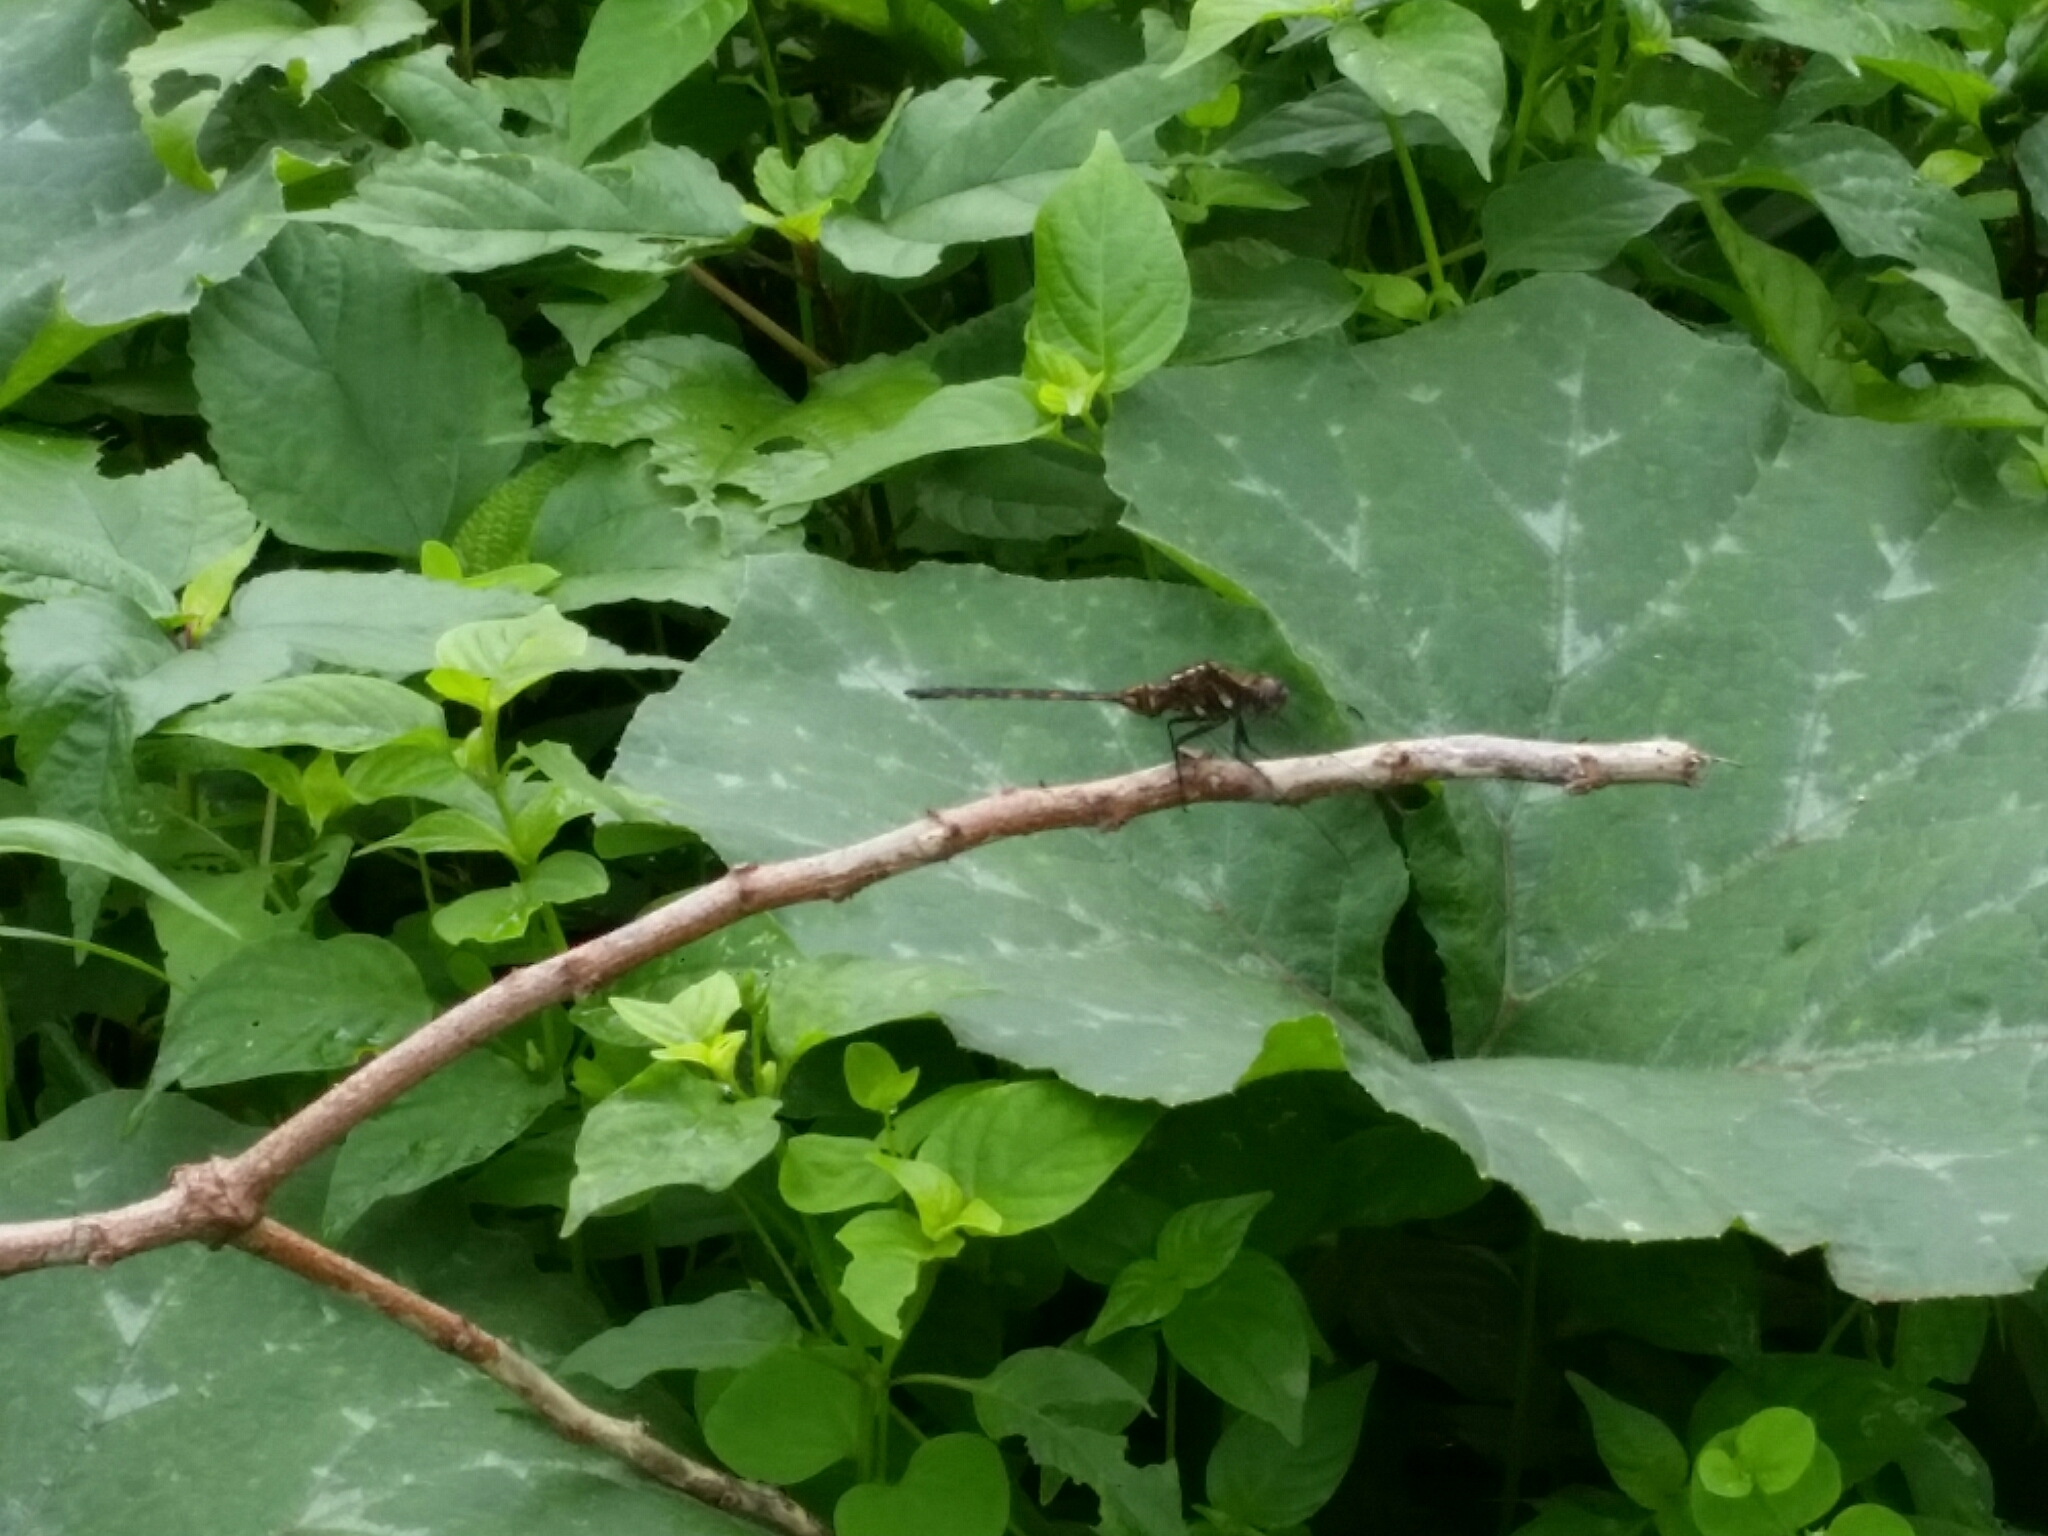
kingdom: Animalia
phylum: Arthropoda
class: Insecta
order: Odonata
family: Libellulidae
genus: Orthetrum
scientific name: Orthetrum brachiale
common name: Banded skimmer
